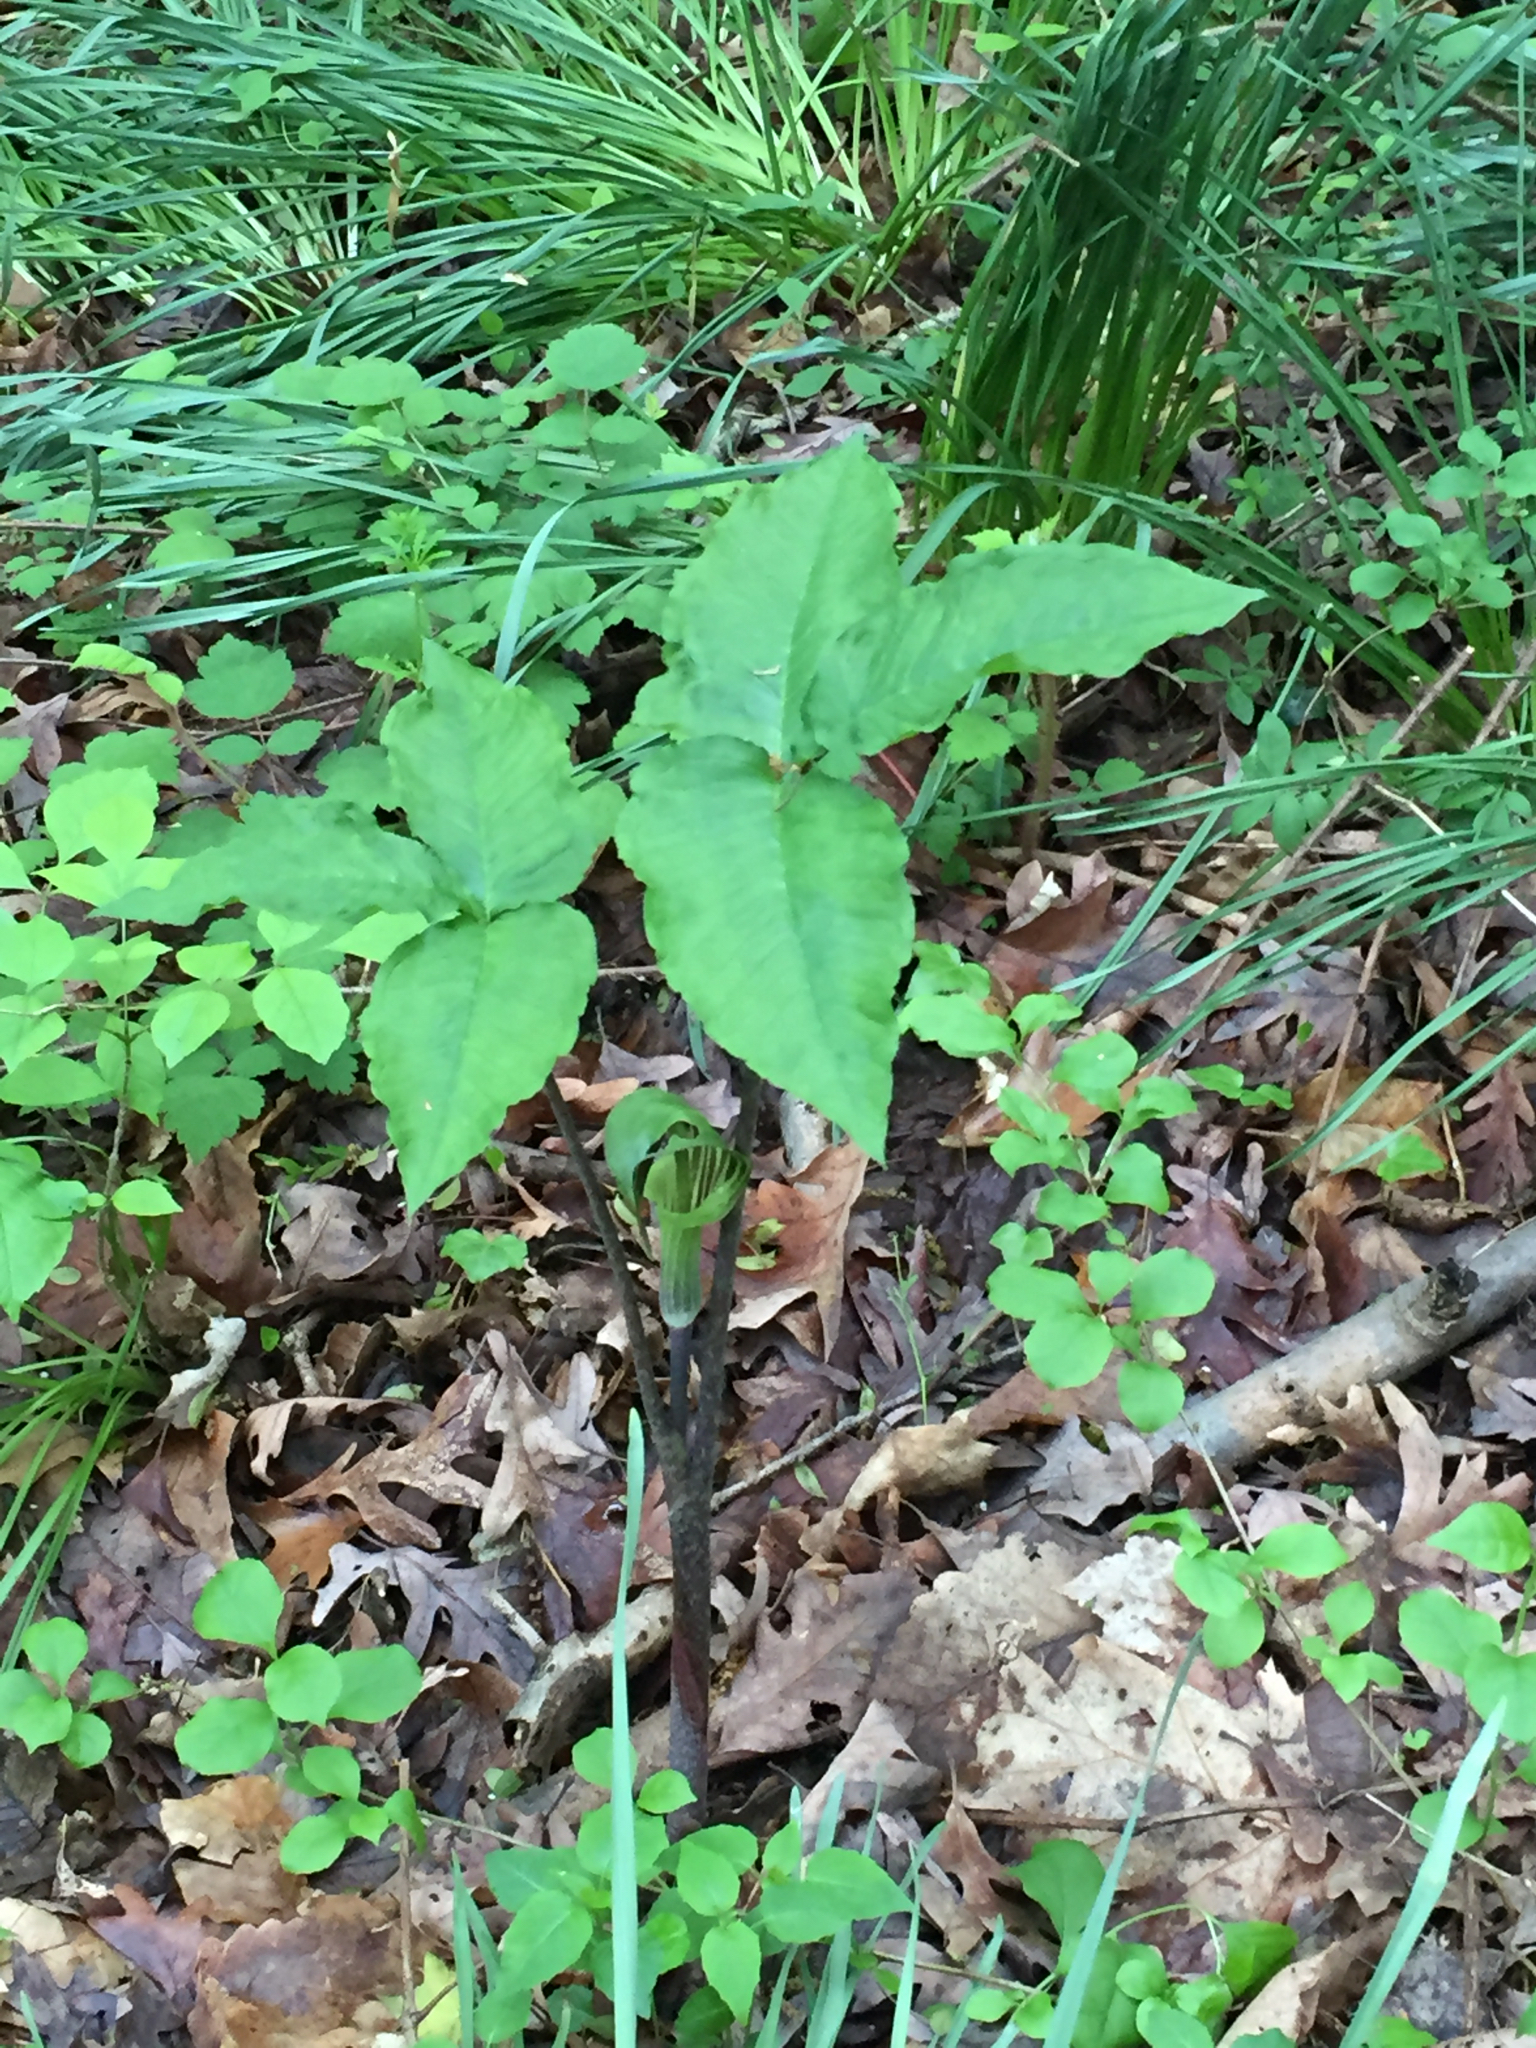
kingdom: Plantae
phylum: Tracheophyta
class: Liliopsida
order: Alismatales
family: Araceae
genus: Arisaema
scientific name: Arisaema triphyllum
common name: Jack-in-the-pulpit
